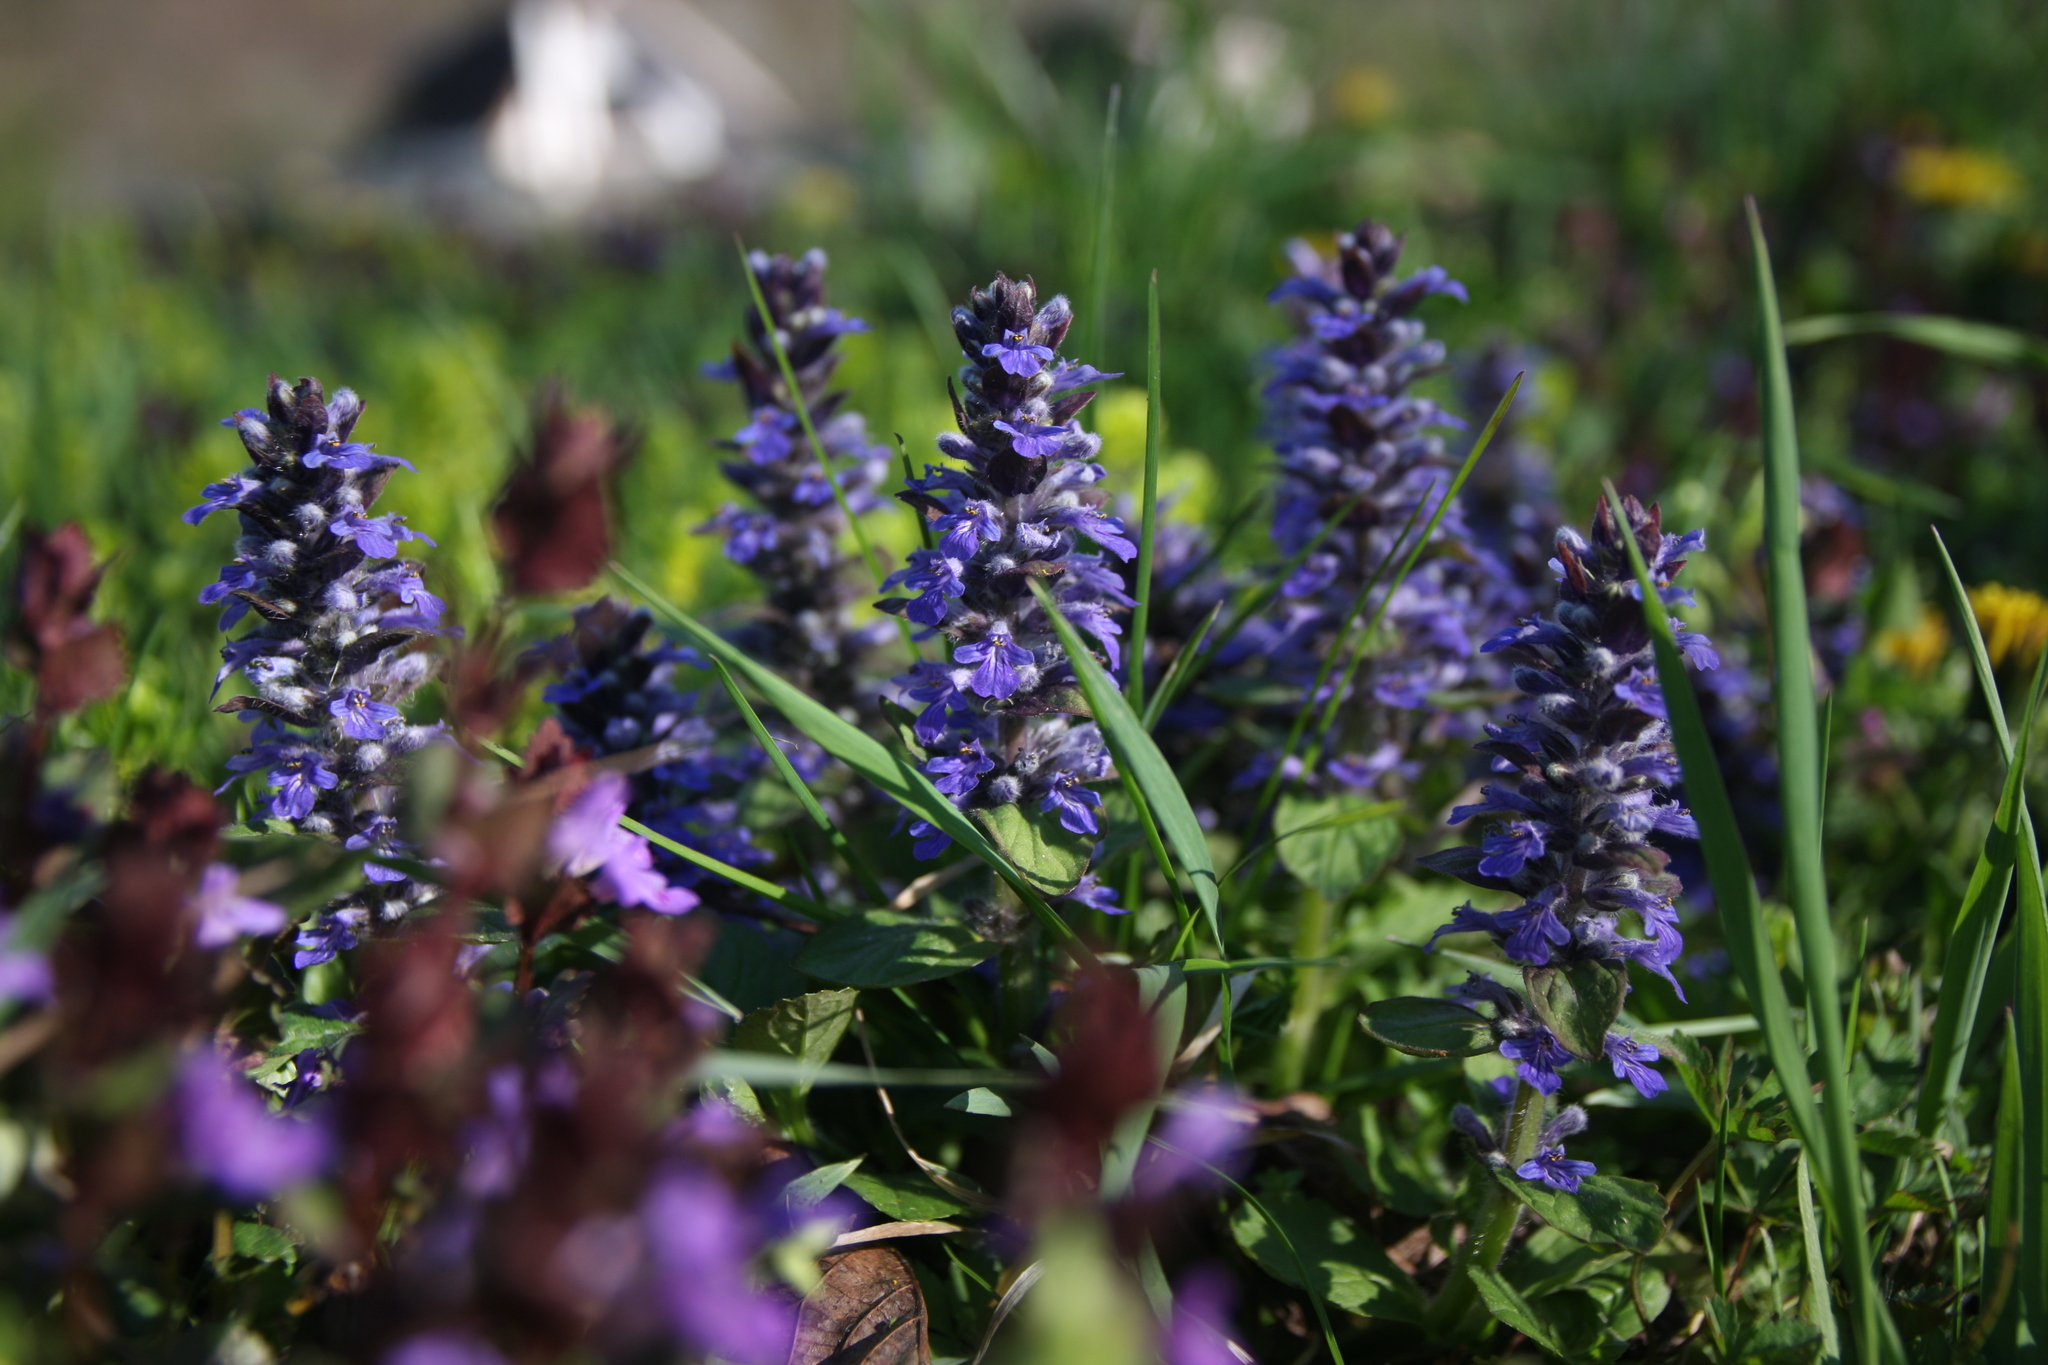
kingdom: Plantae
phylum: Tracheophyta
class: Magnoliopsida
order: Lamiales
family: Lamiaceae
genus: Ajuga
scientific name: Ajuga reptans
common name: Bugle
